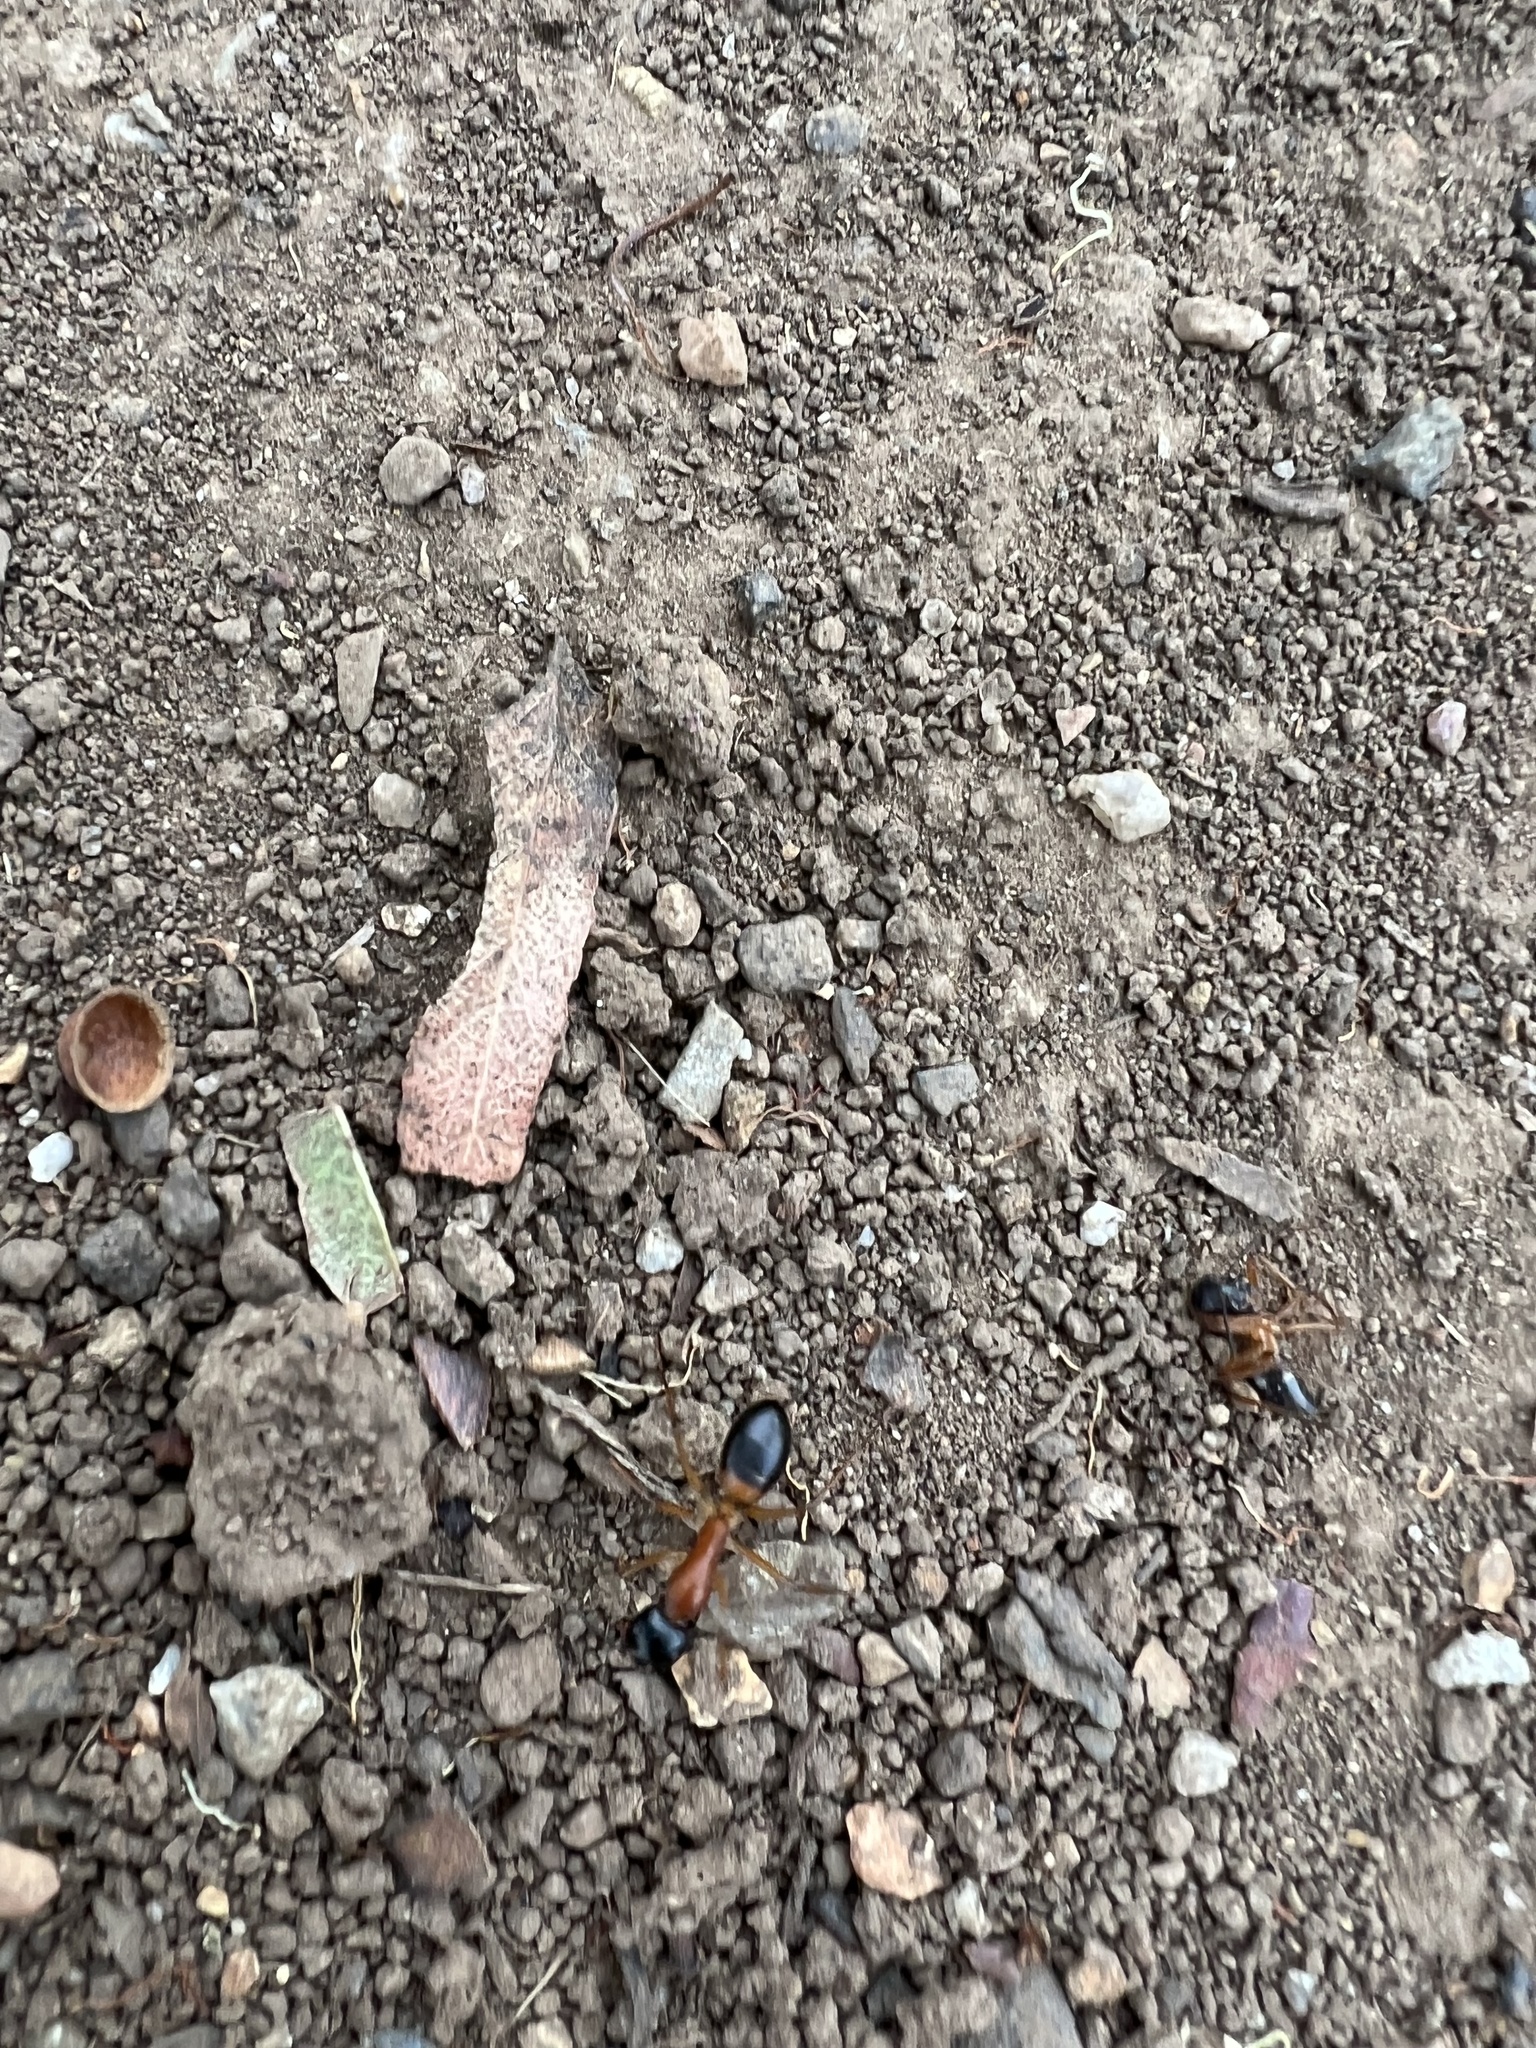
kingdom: Animalia
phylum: Arthropoda
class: Insecta
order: Hymenoptera
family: Formicidae
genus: Camponotus
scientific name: Camponotus consobrinus
